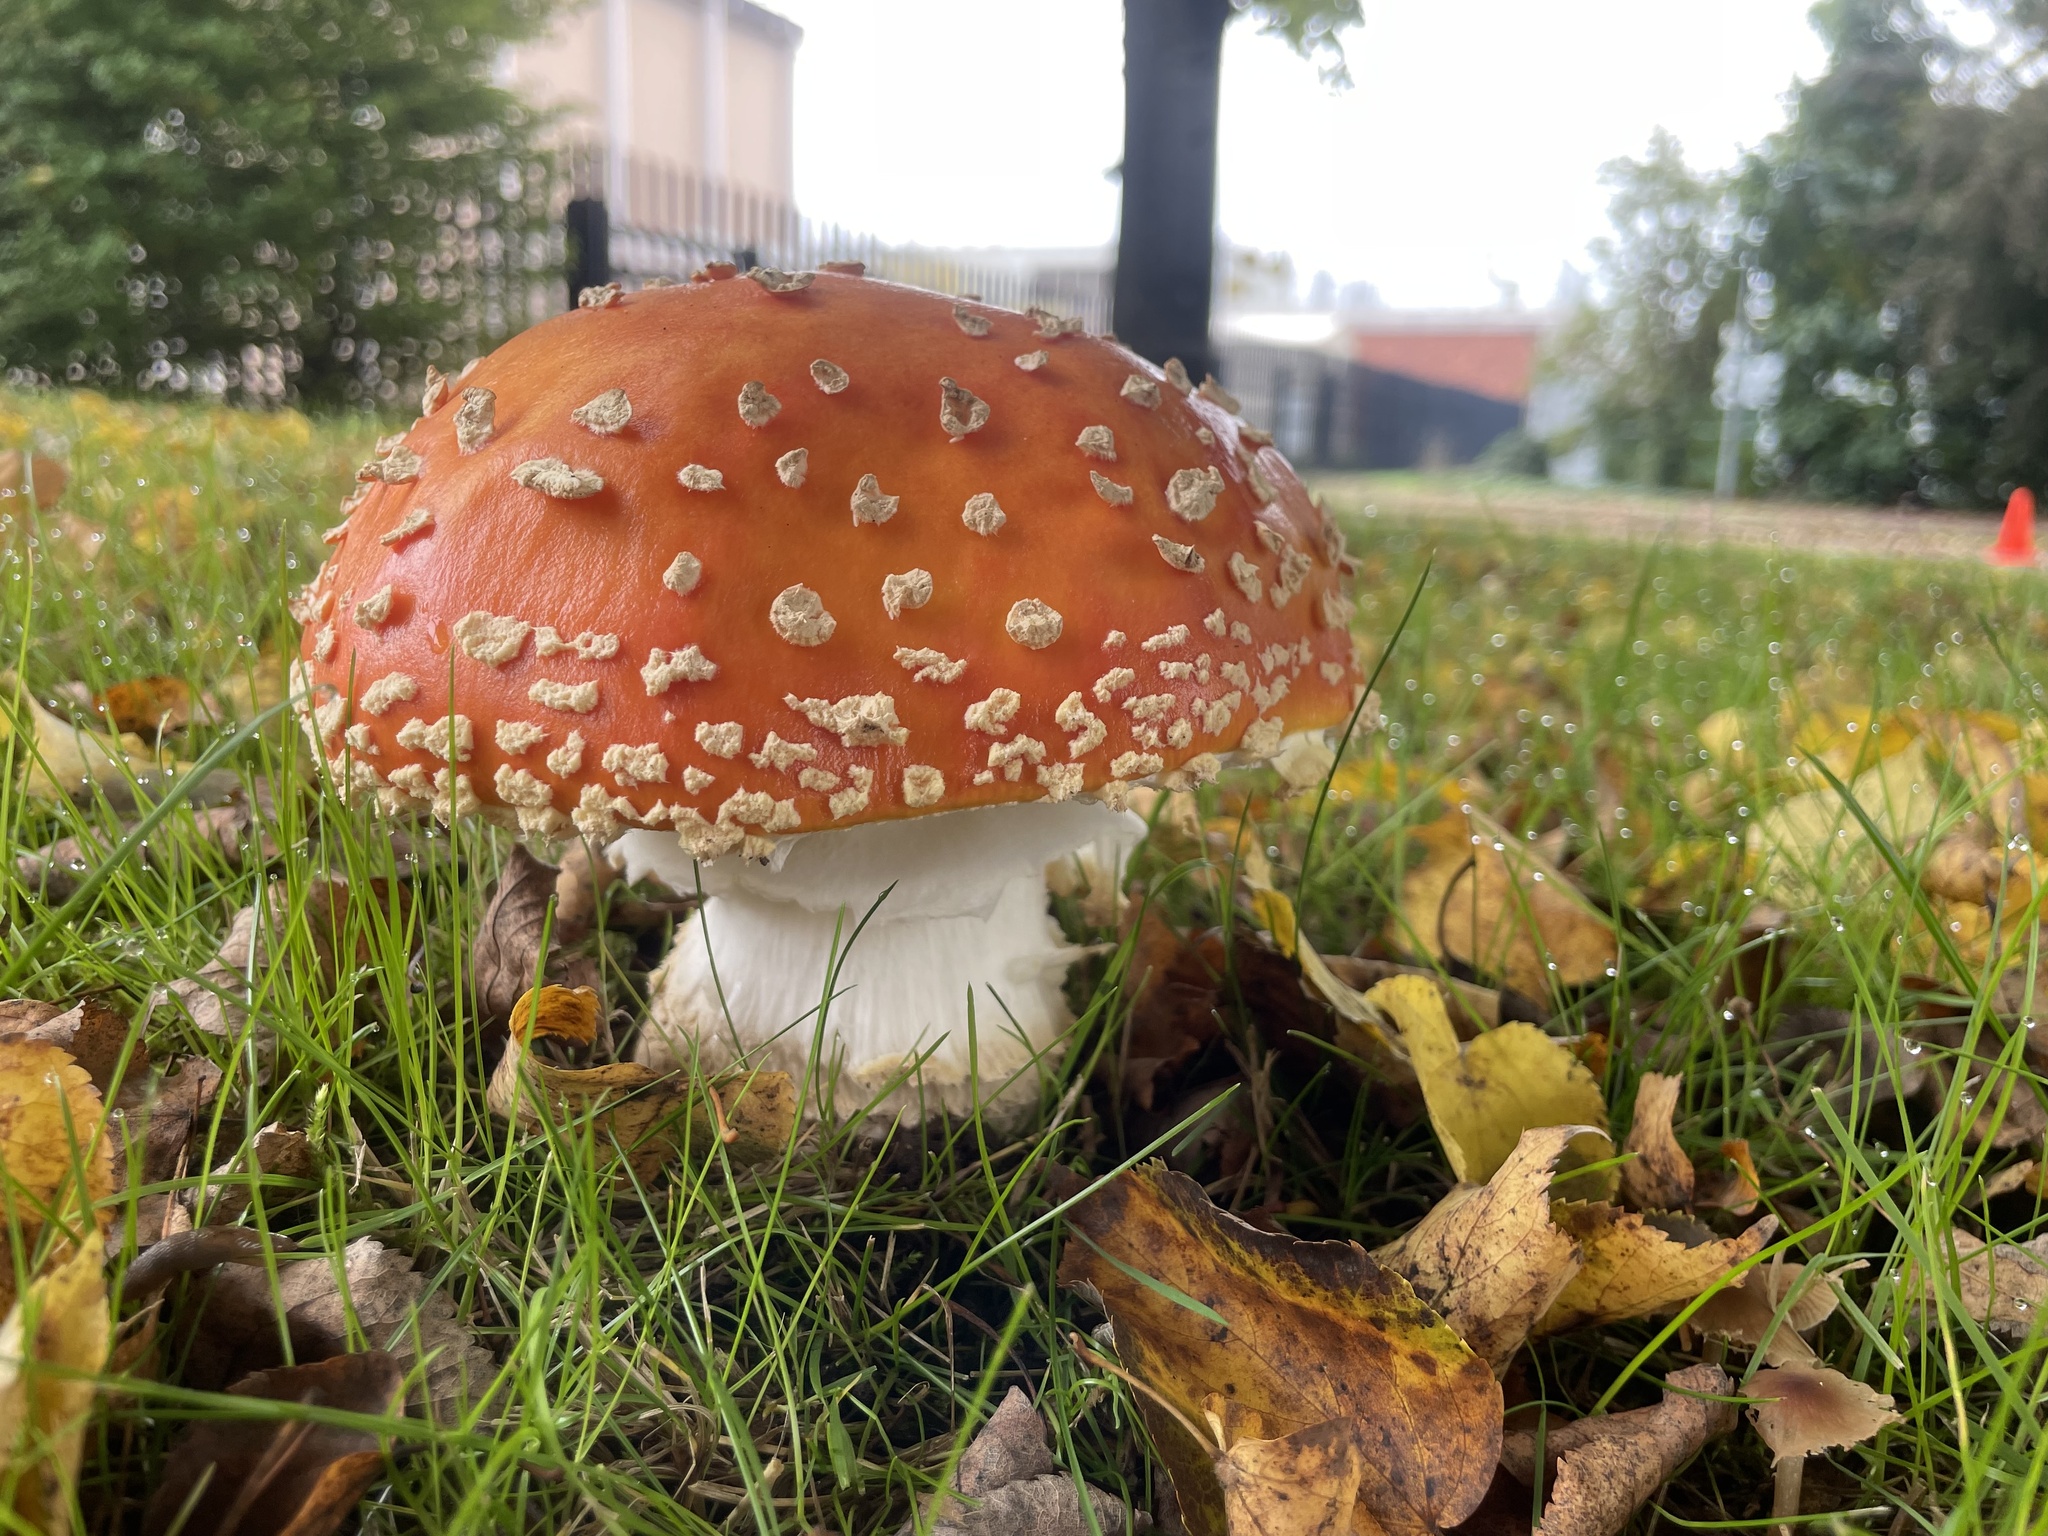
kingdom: Fungi
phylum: Basidiomycota
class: Agaricomycetes
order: Agaricales
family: Amanitaceae
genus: Amanita
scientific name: Amanita muscaria
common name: Fly agaric
